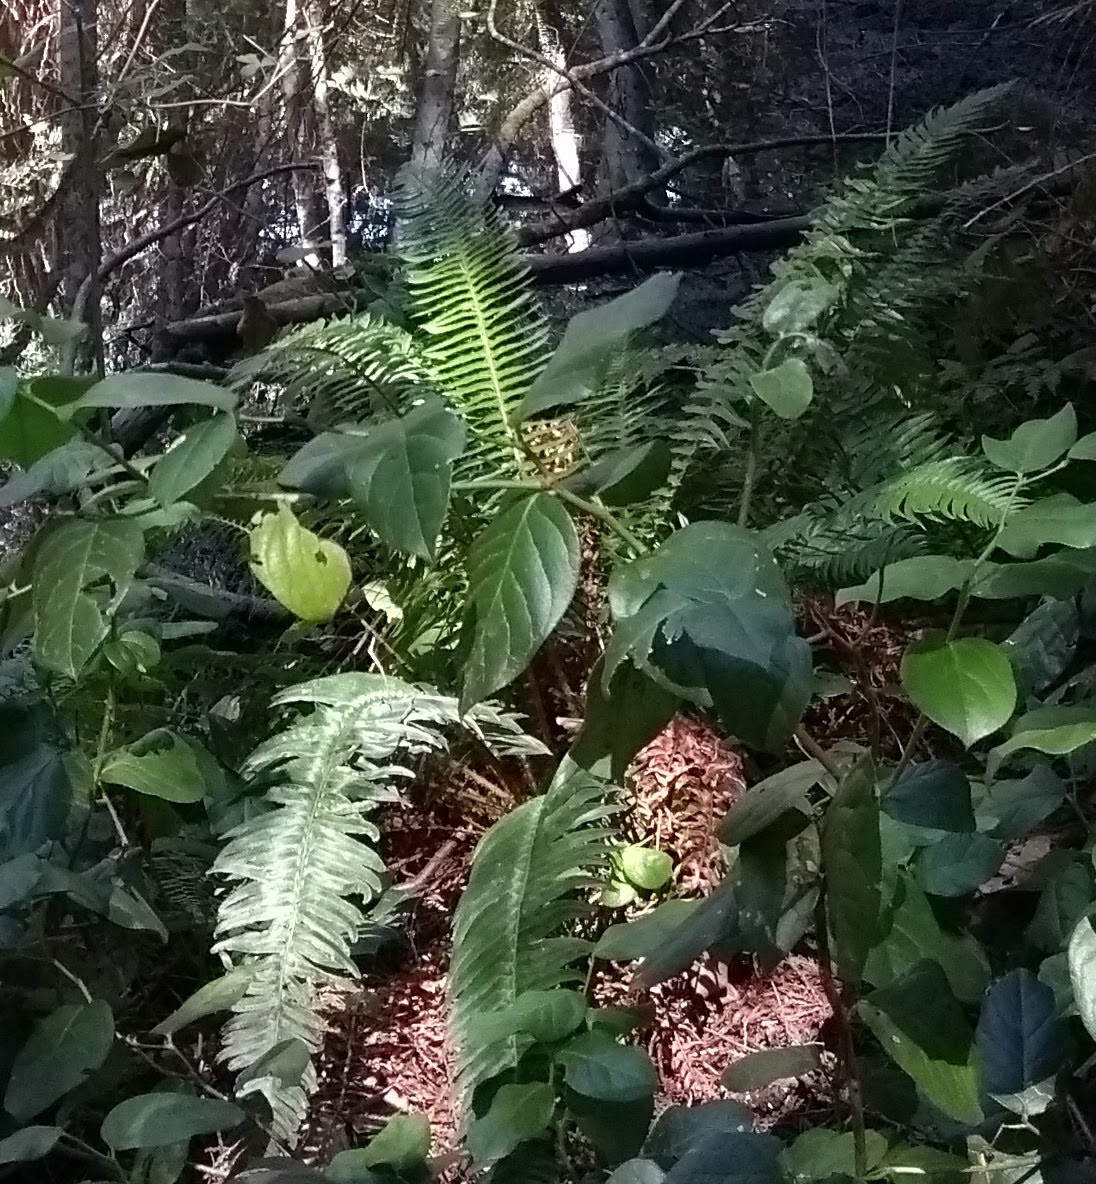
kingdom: Plantae
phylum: Tracheophyta
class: Polypodiopsida
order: Polypodiales
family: Dryopteridaceae
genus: Polystichum
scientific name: Polystichum munitum
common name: Western sword-fern
